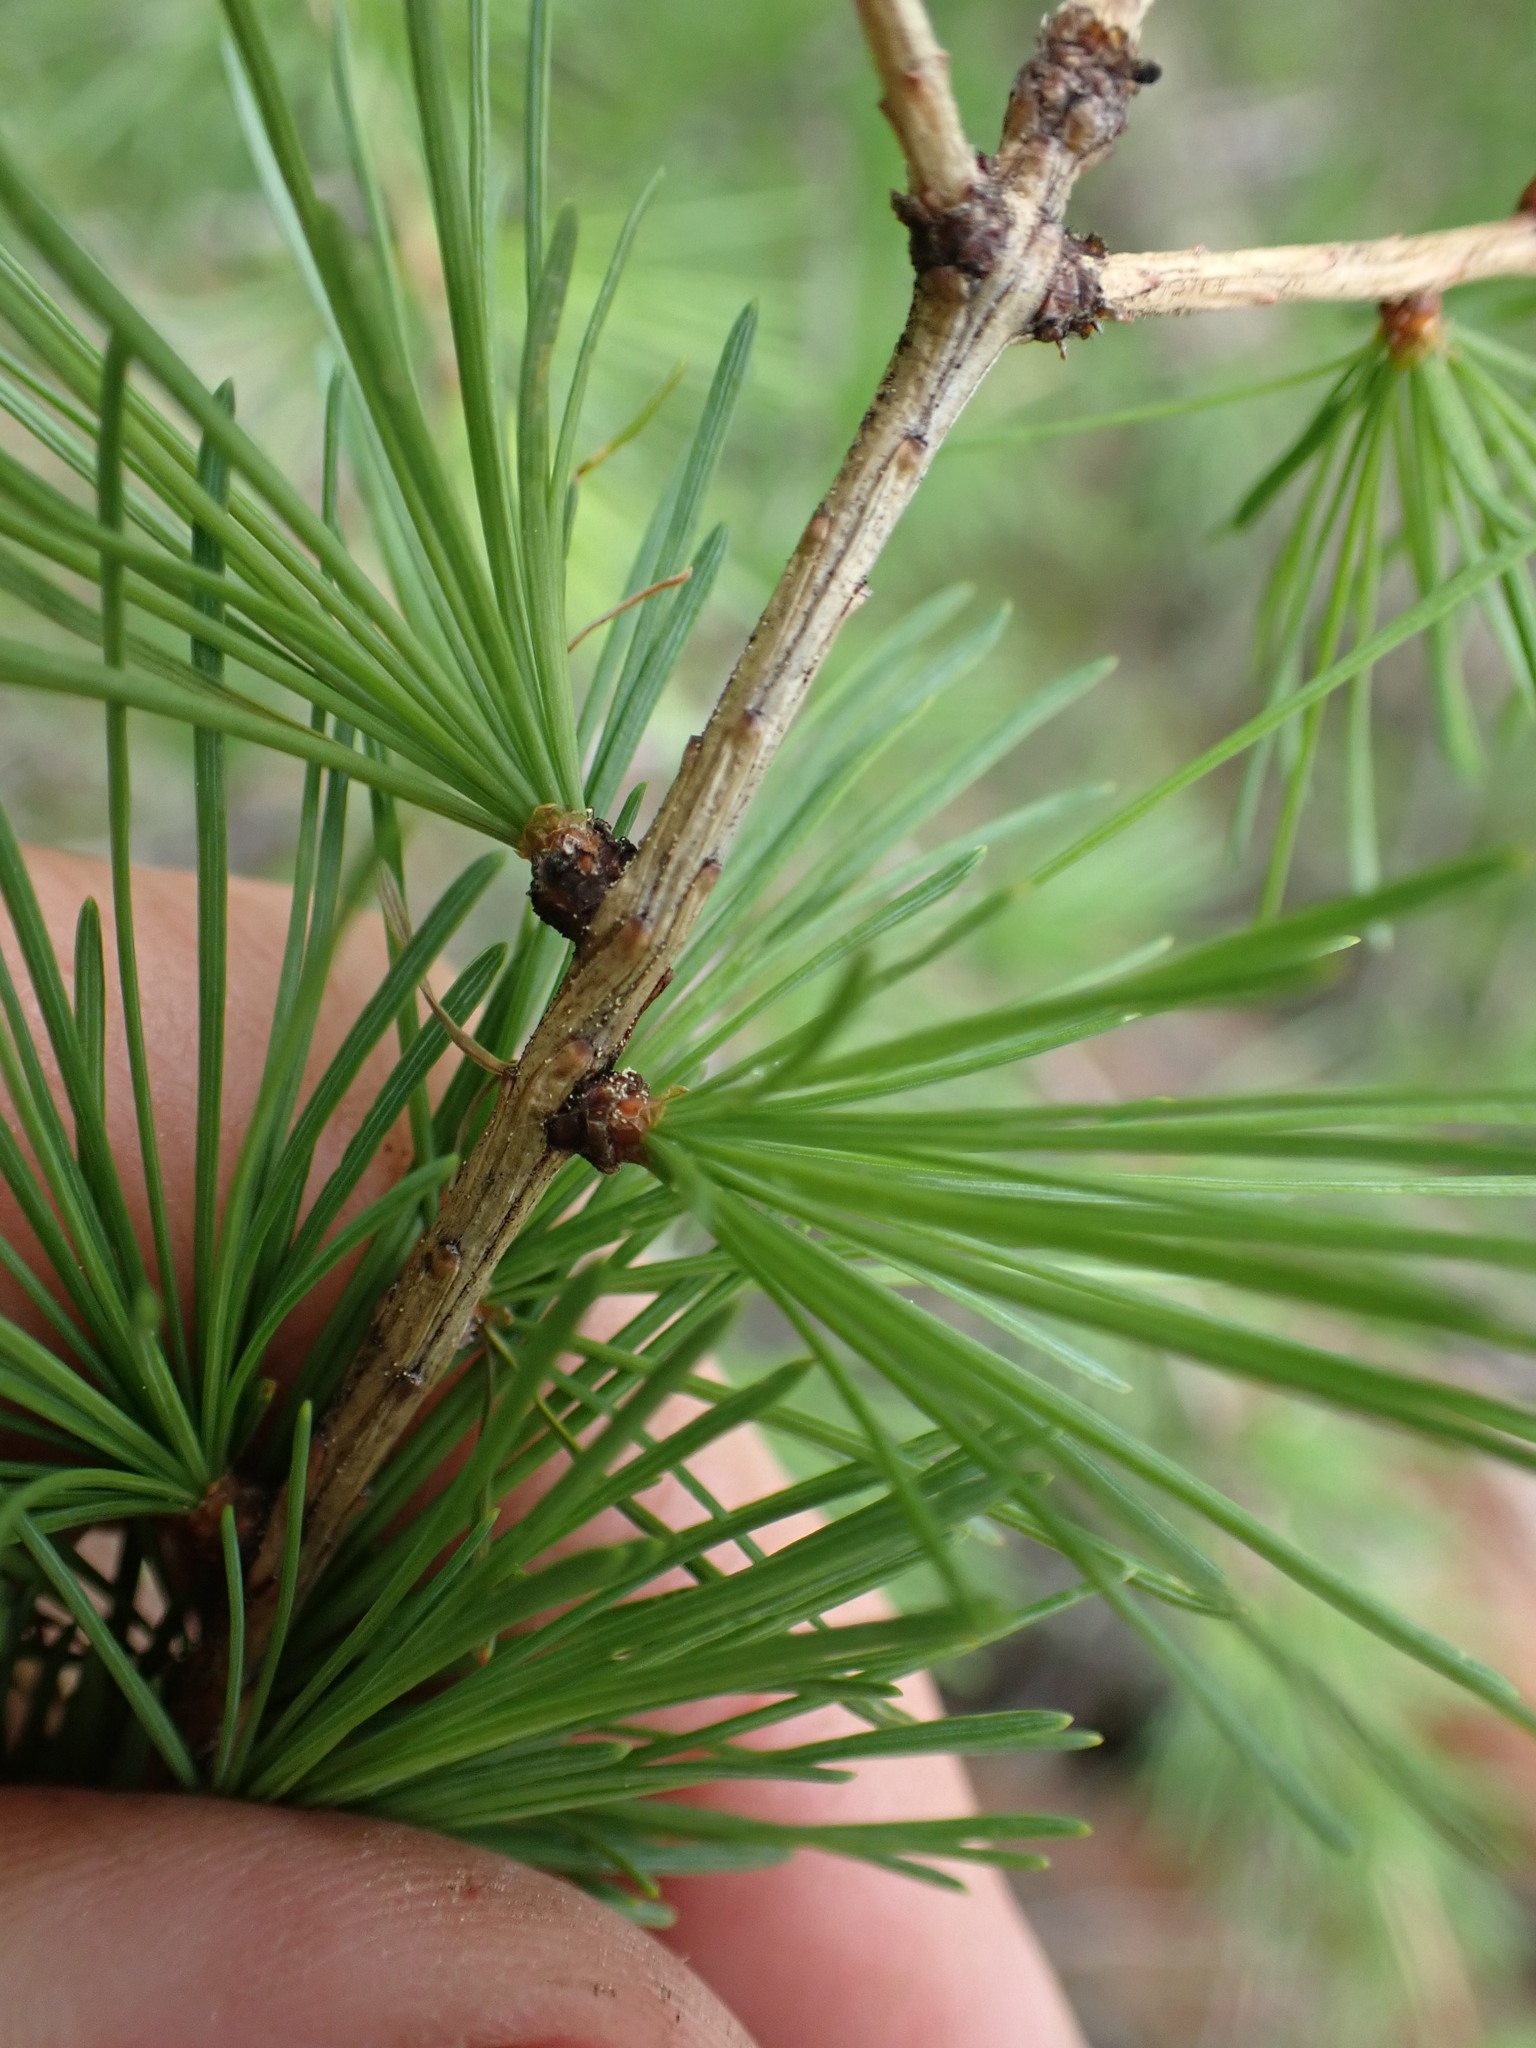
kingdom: Plantae
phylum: Tracheophyta
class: Pinopsida
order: Pinales
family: Pinaceae
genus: Larix
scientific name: Larix occidentalis
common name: Western larch
